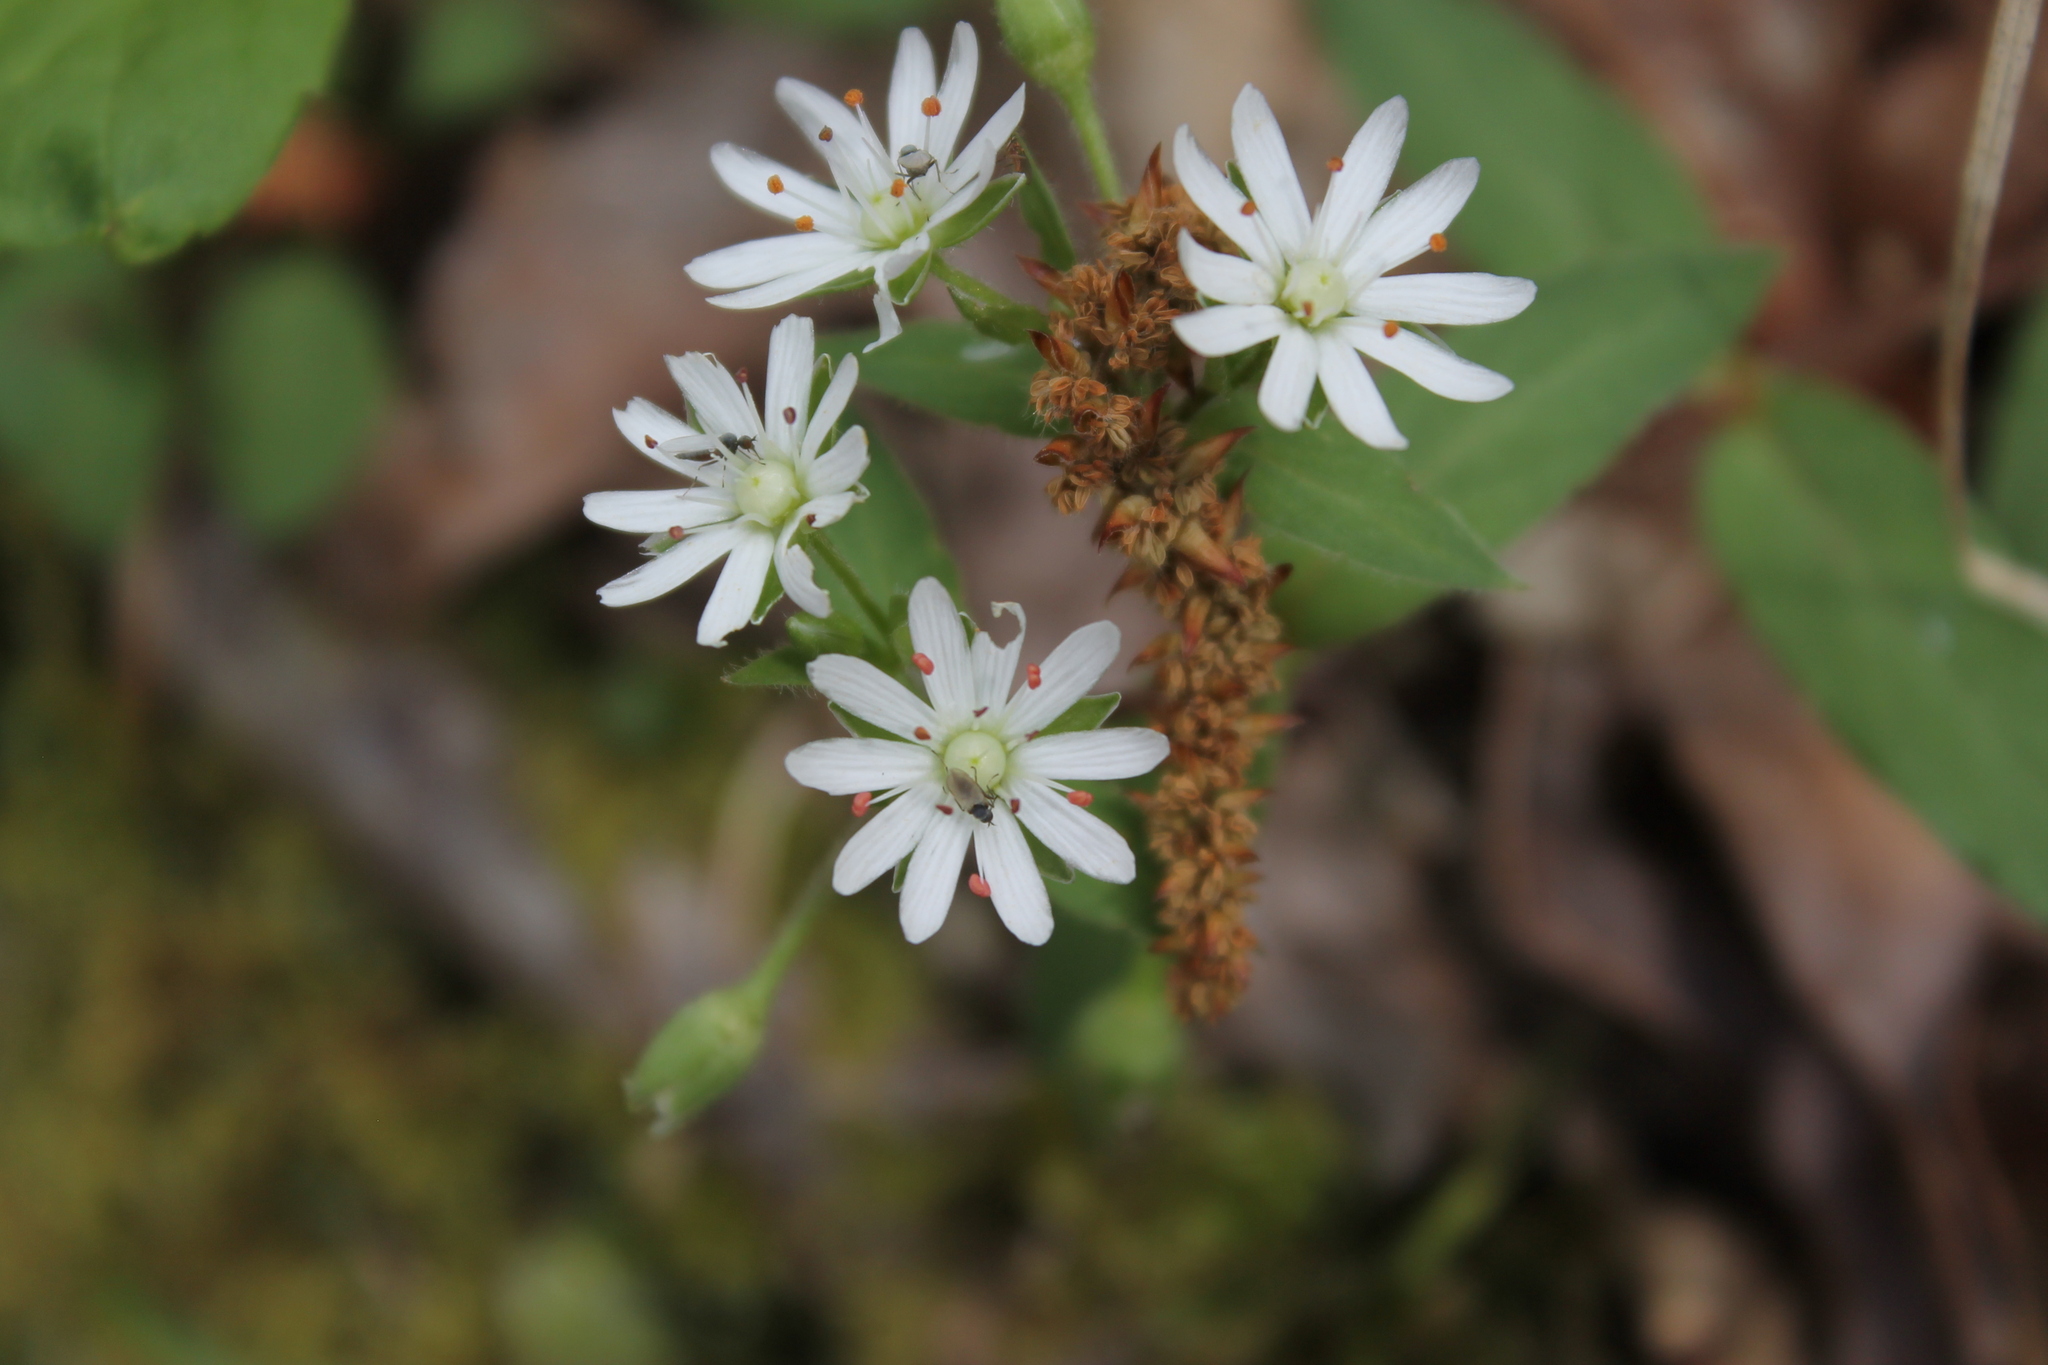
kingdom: Plantae
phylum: Tracheophyta
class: Magnoliopsida
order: Caryophyllales
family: Caryophyllaceae
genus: Stellaria
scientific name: Stellaria pubera
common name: Star chickweed
